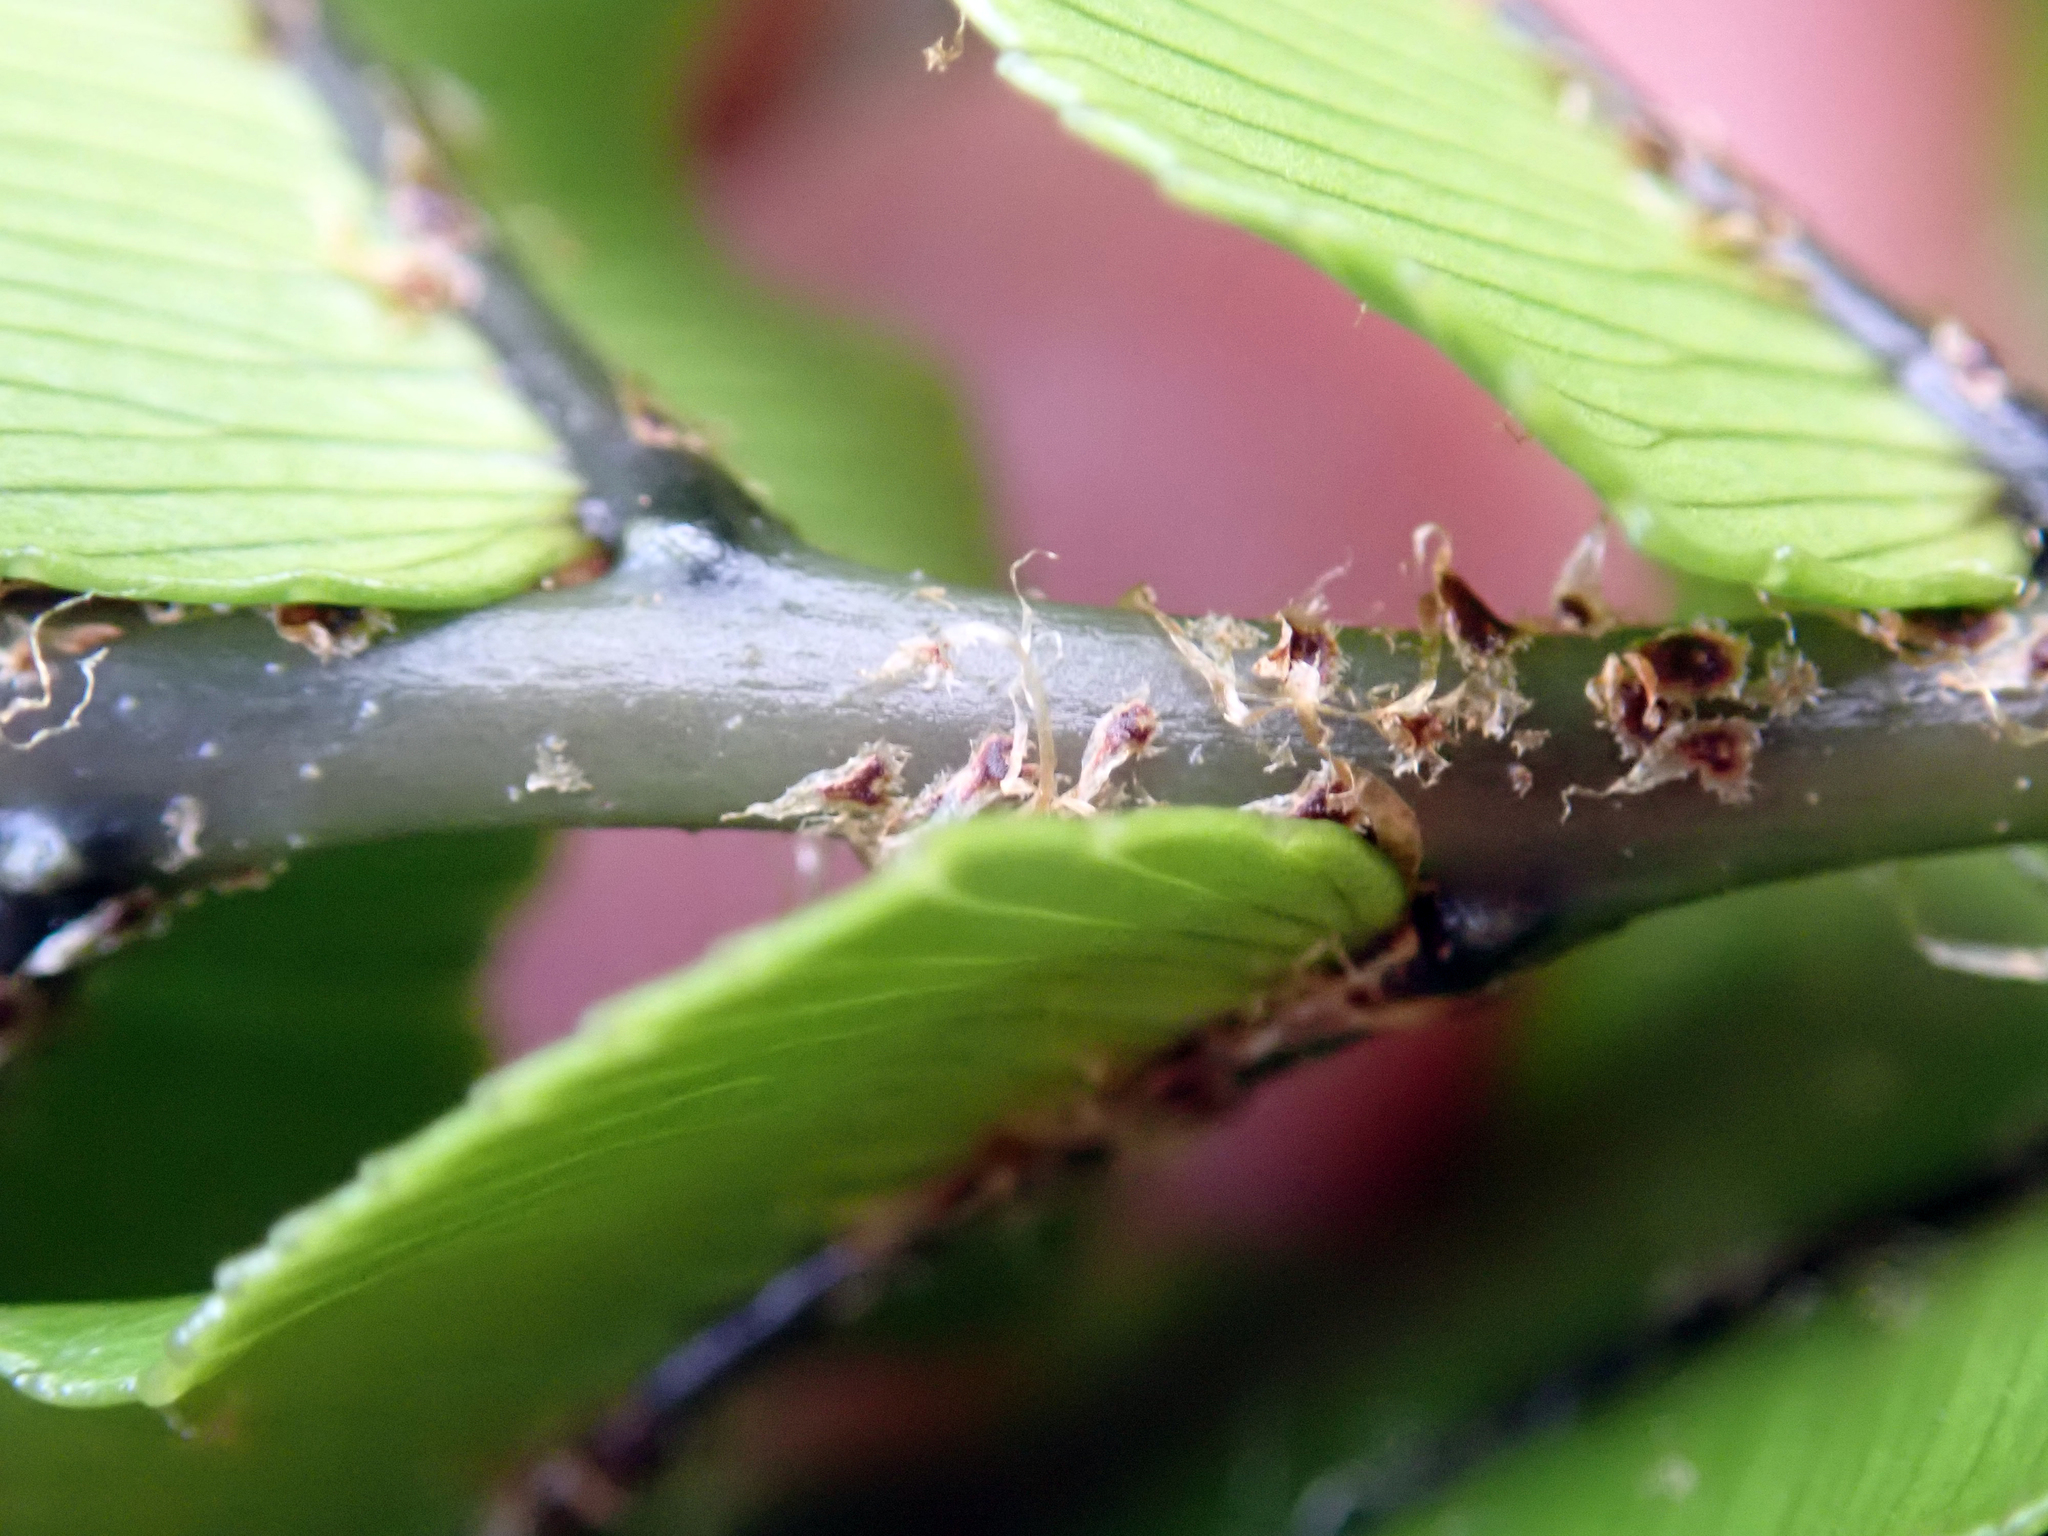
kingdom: Plantae
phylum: Tracheophyta
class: Polypodiopsida
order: Polypodiales
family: Blechnaceae
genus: Parablechnum
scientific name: Parablechnum montanum
